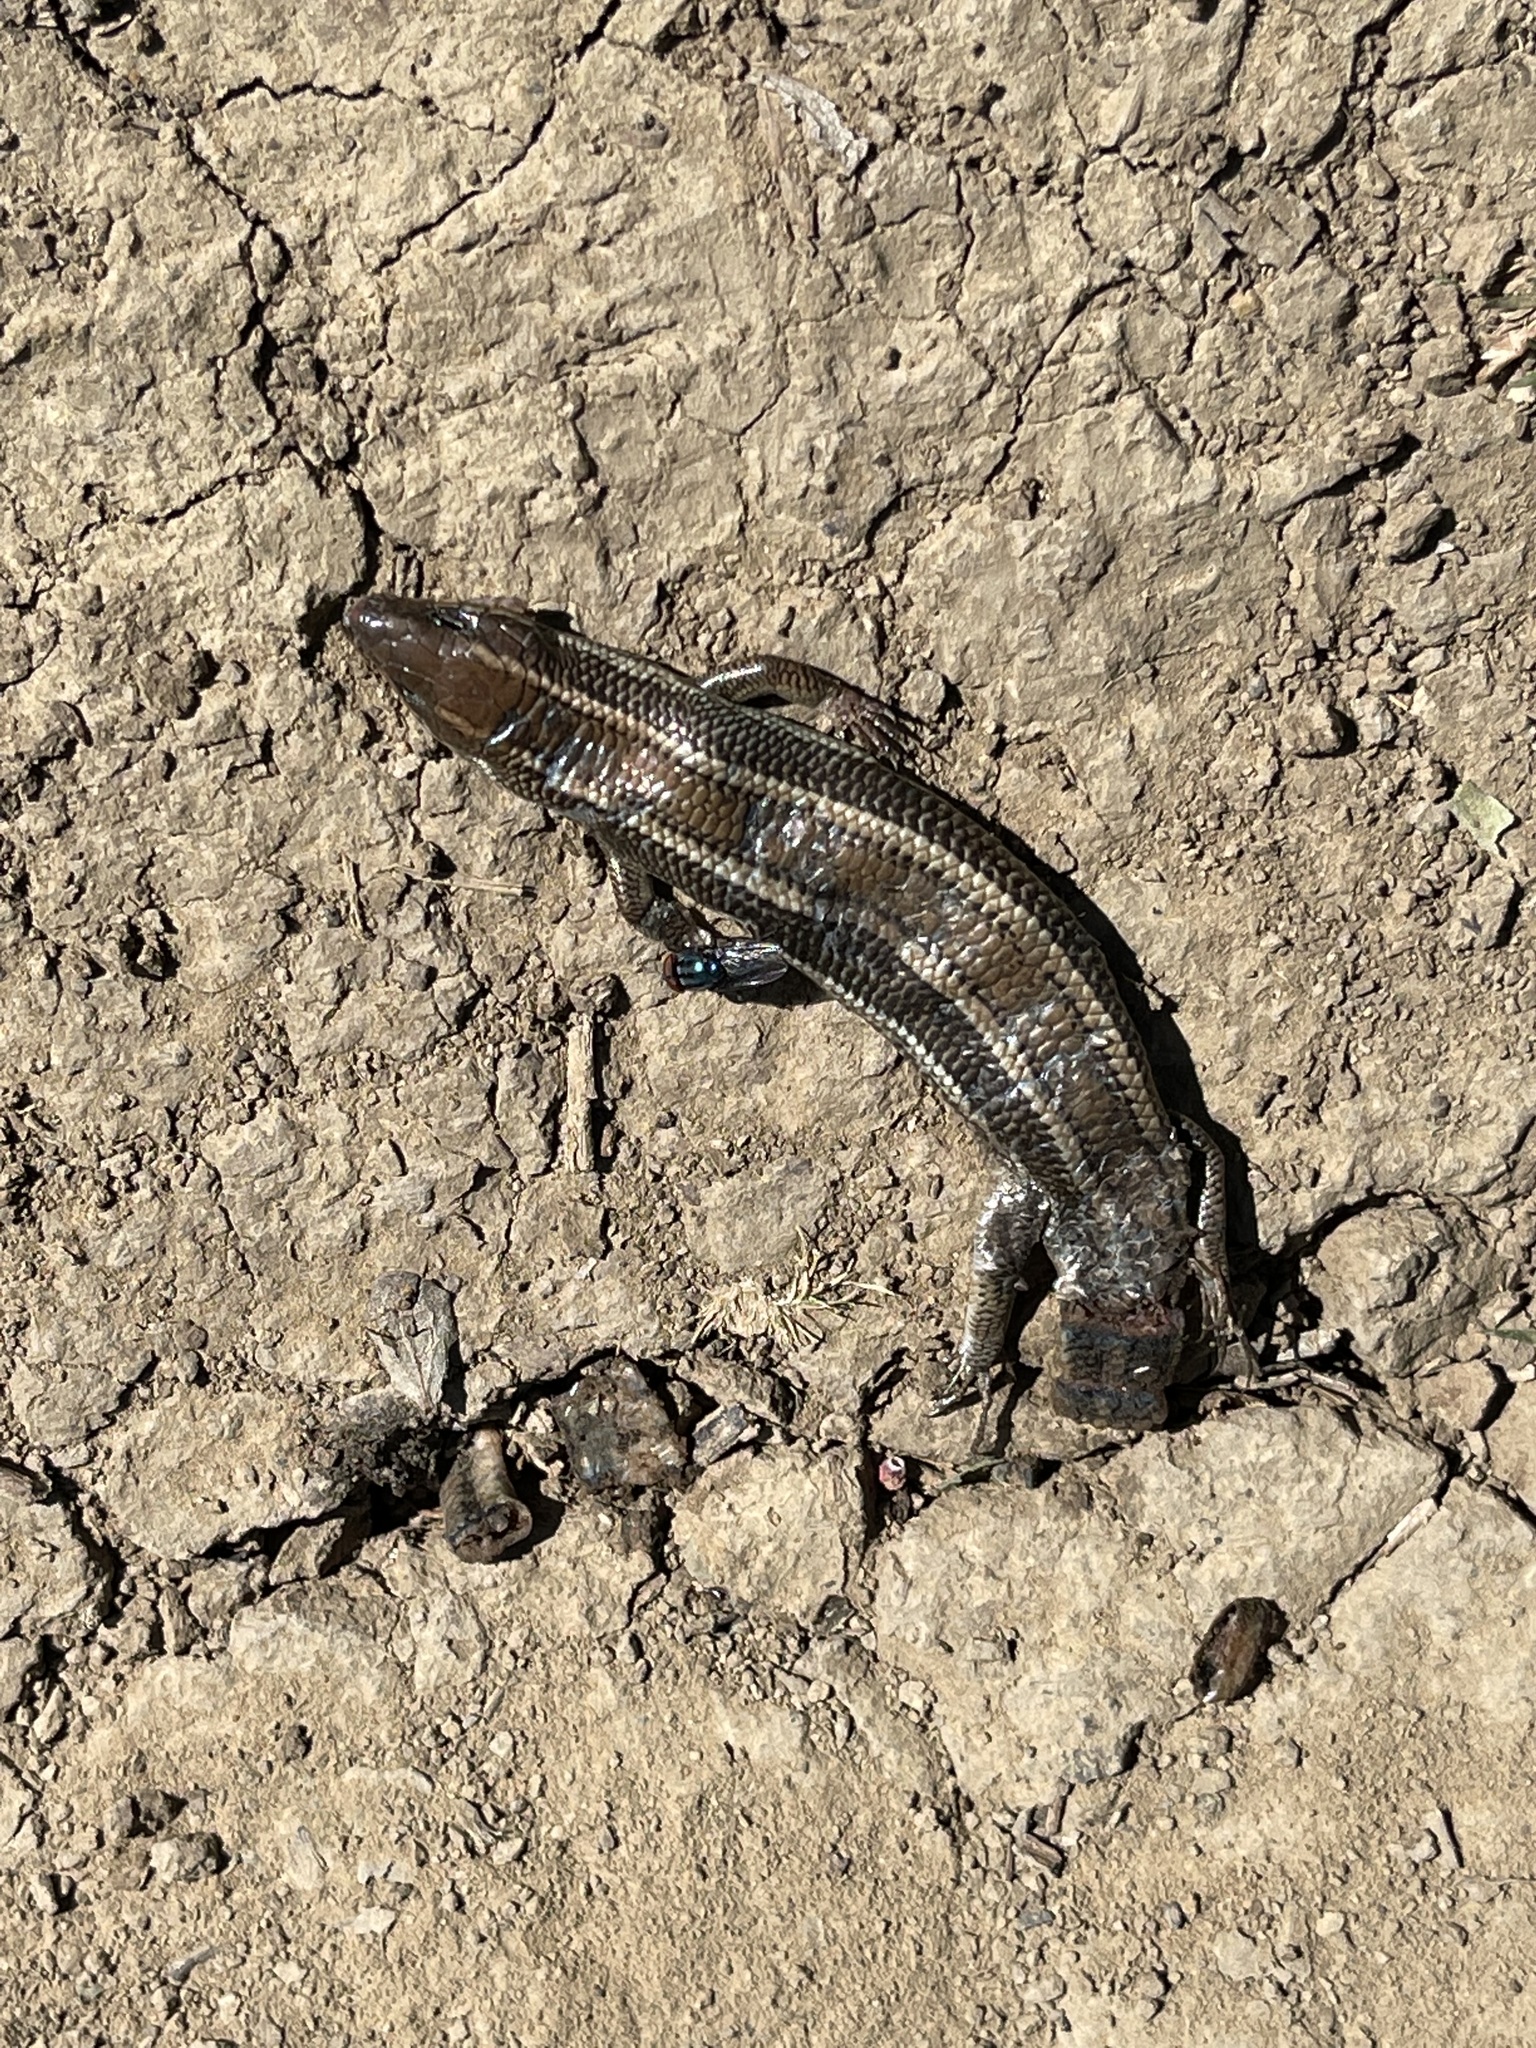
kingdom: Animalia
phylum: Chordata
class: Squamata
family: Scincidae
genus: Plestiodon
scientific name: Plestiodon skiltonianus
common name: Coronado island skink [interparietalis]
